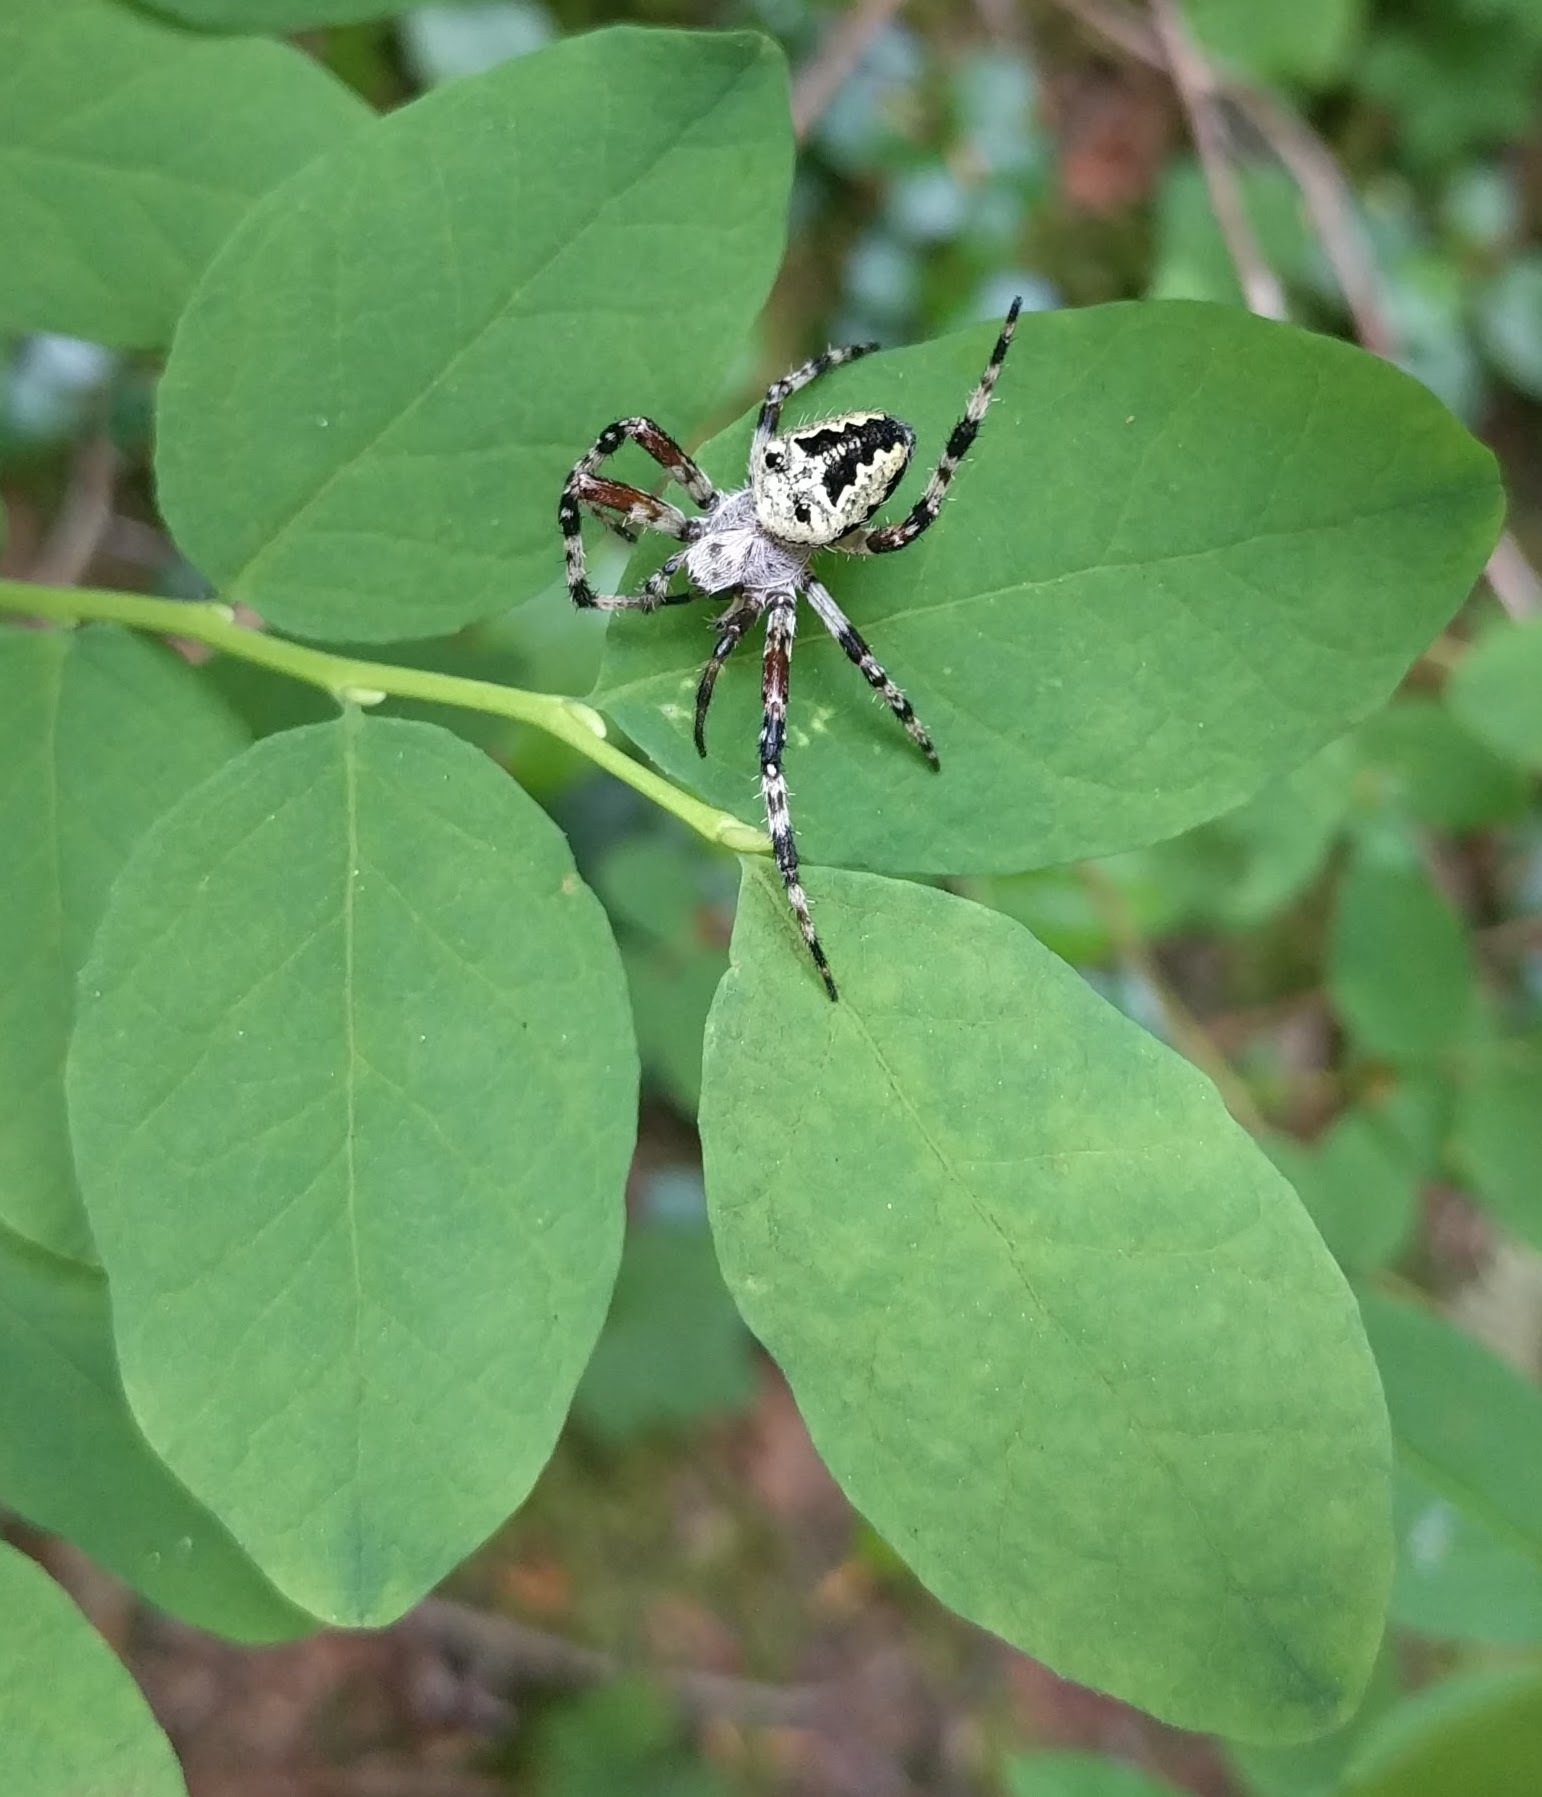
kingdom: Animalia
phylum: Arthropoda
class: Arachnida
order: Araneae
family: Araneidae
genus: Araneus
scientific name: Araneus nordmanni
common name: Nordmann's orbweaver
